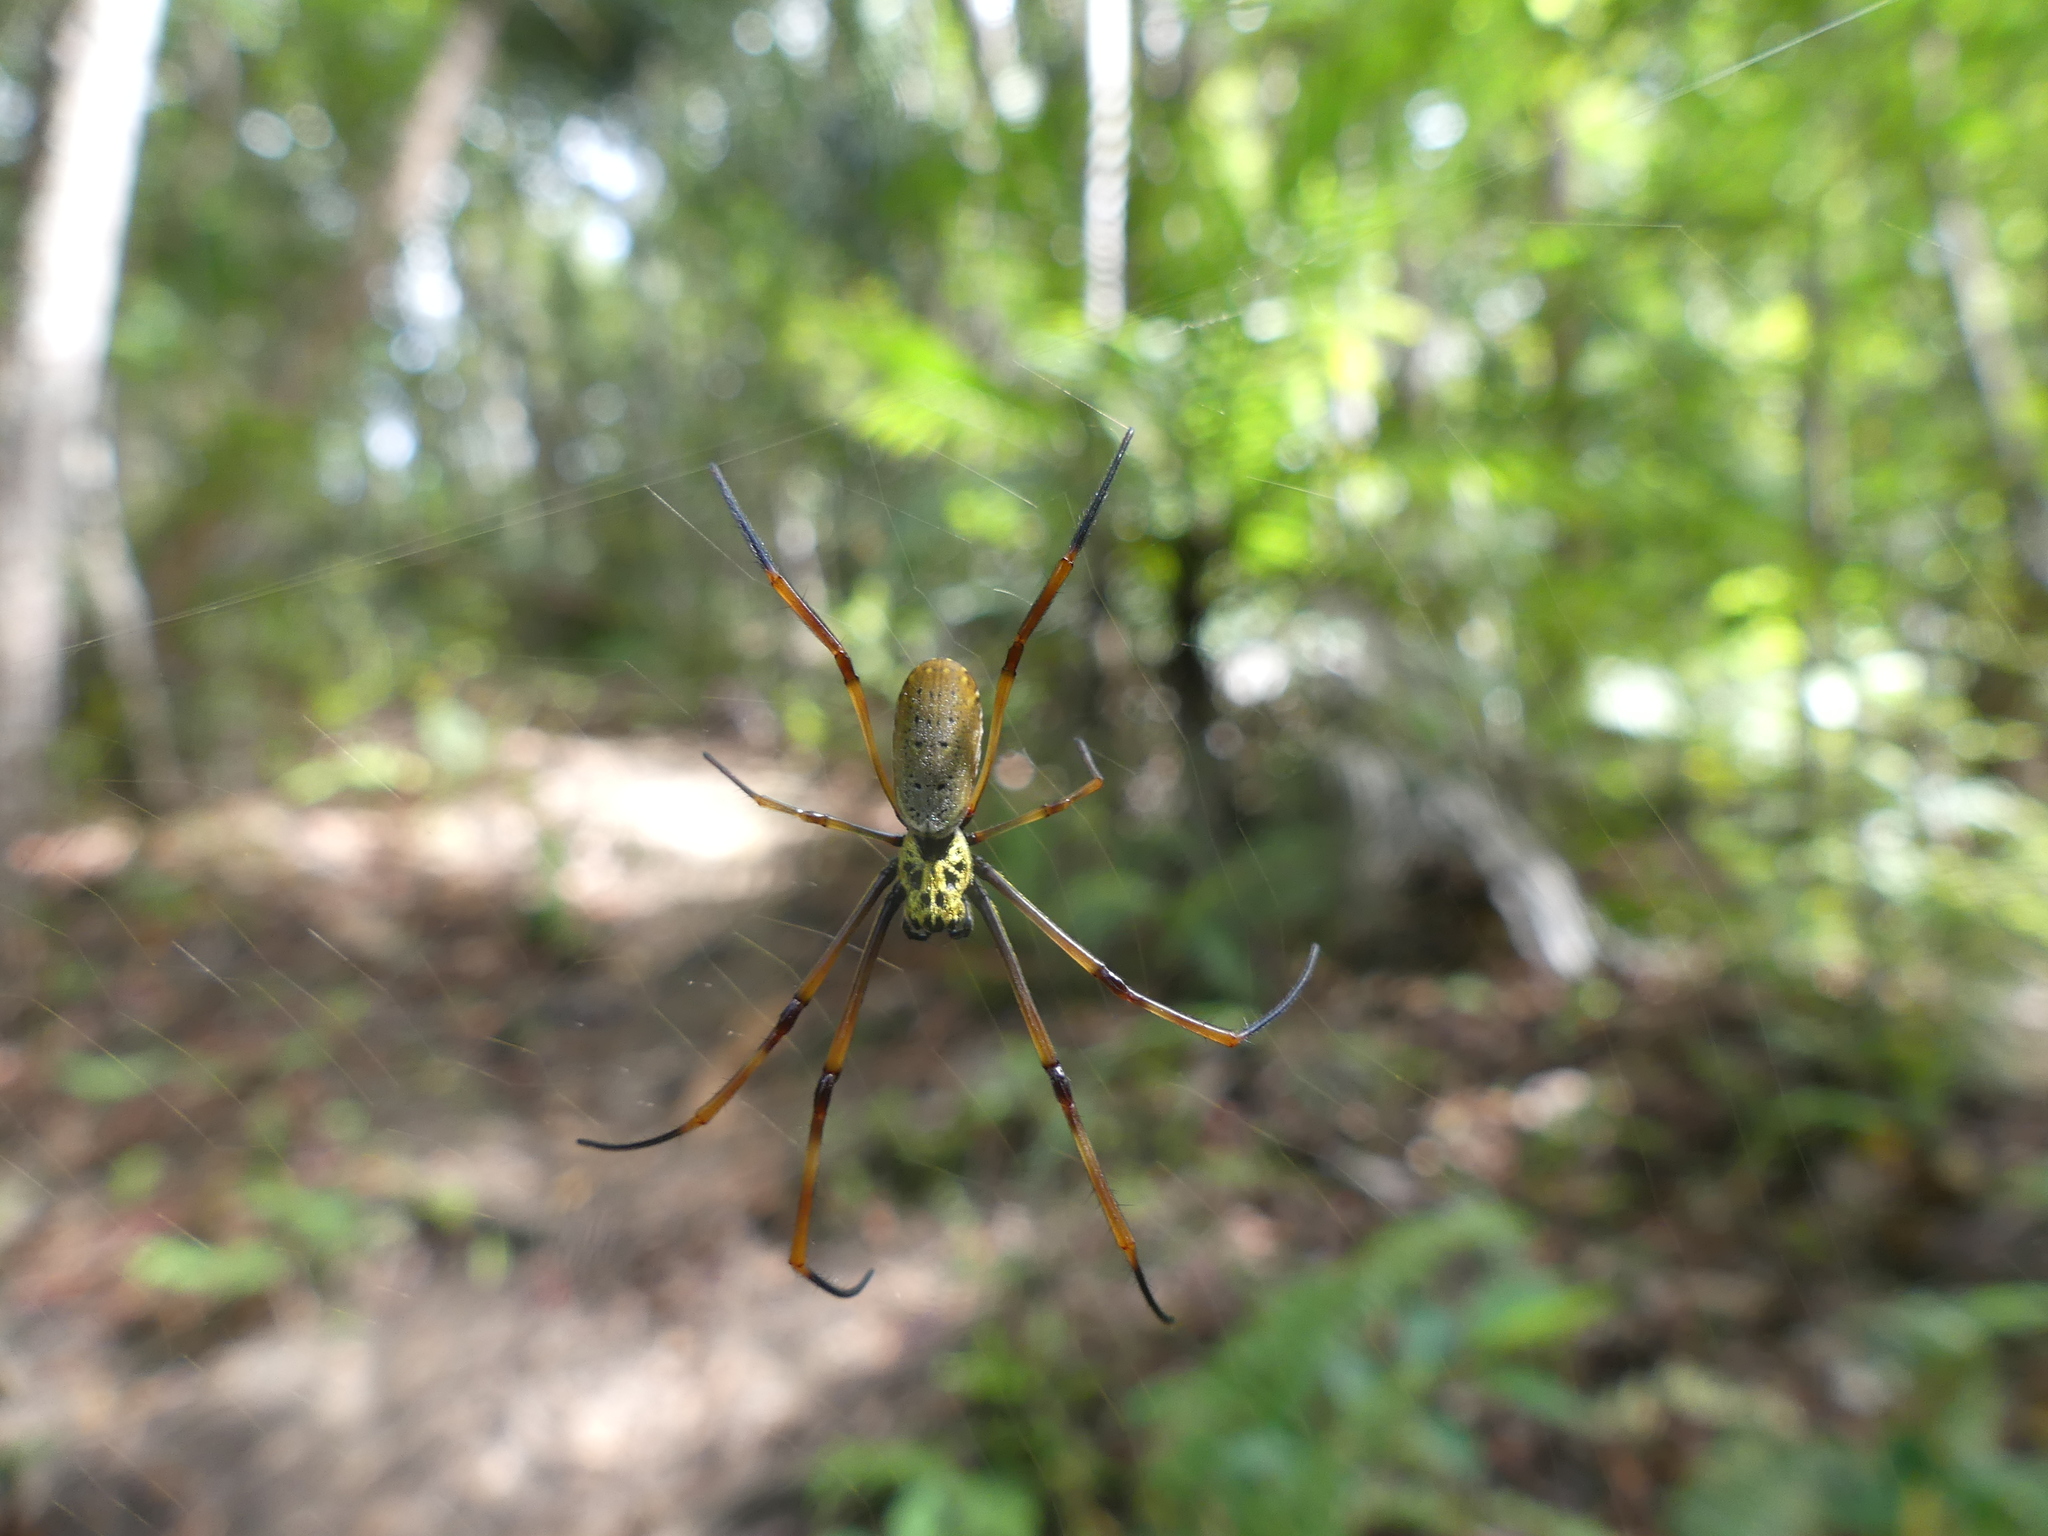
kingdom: Animalia
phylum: Arthropoda
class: Arachnida
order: Araneae
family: Araneidae
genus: Trichonephila
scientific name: Trichonephila plumipes
